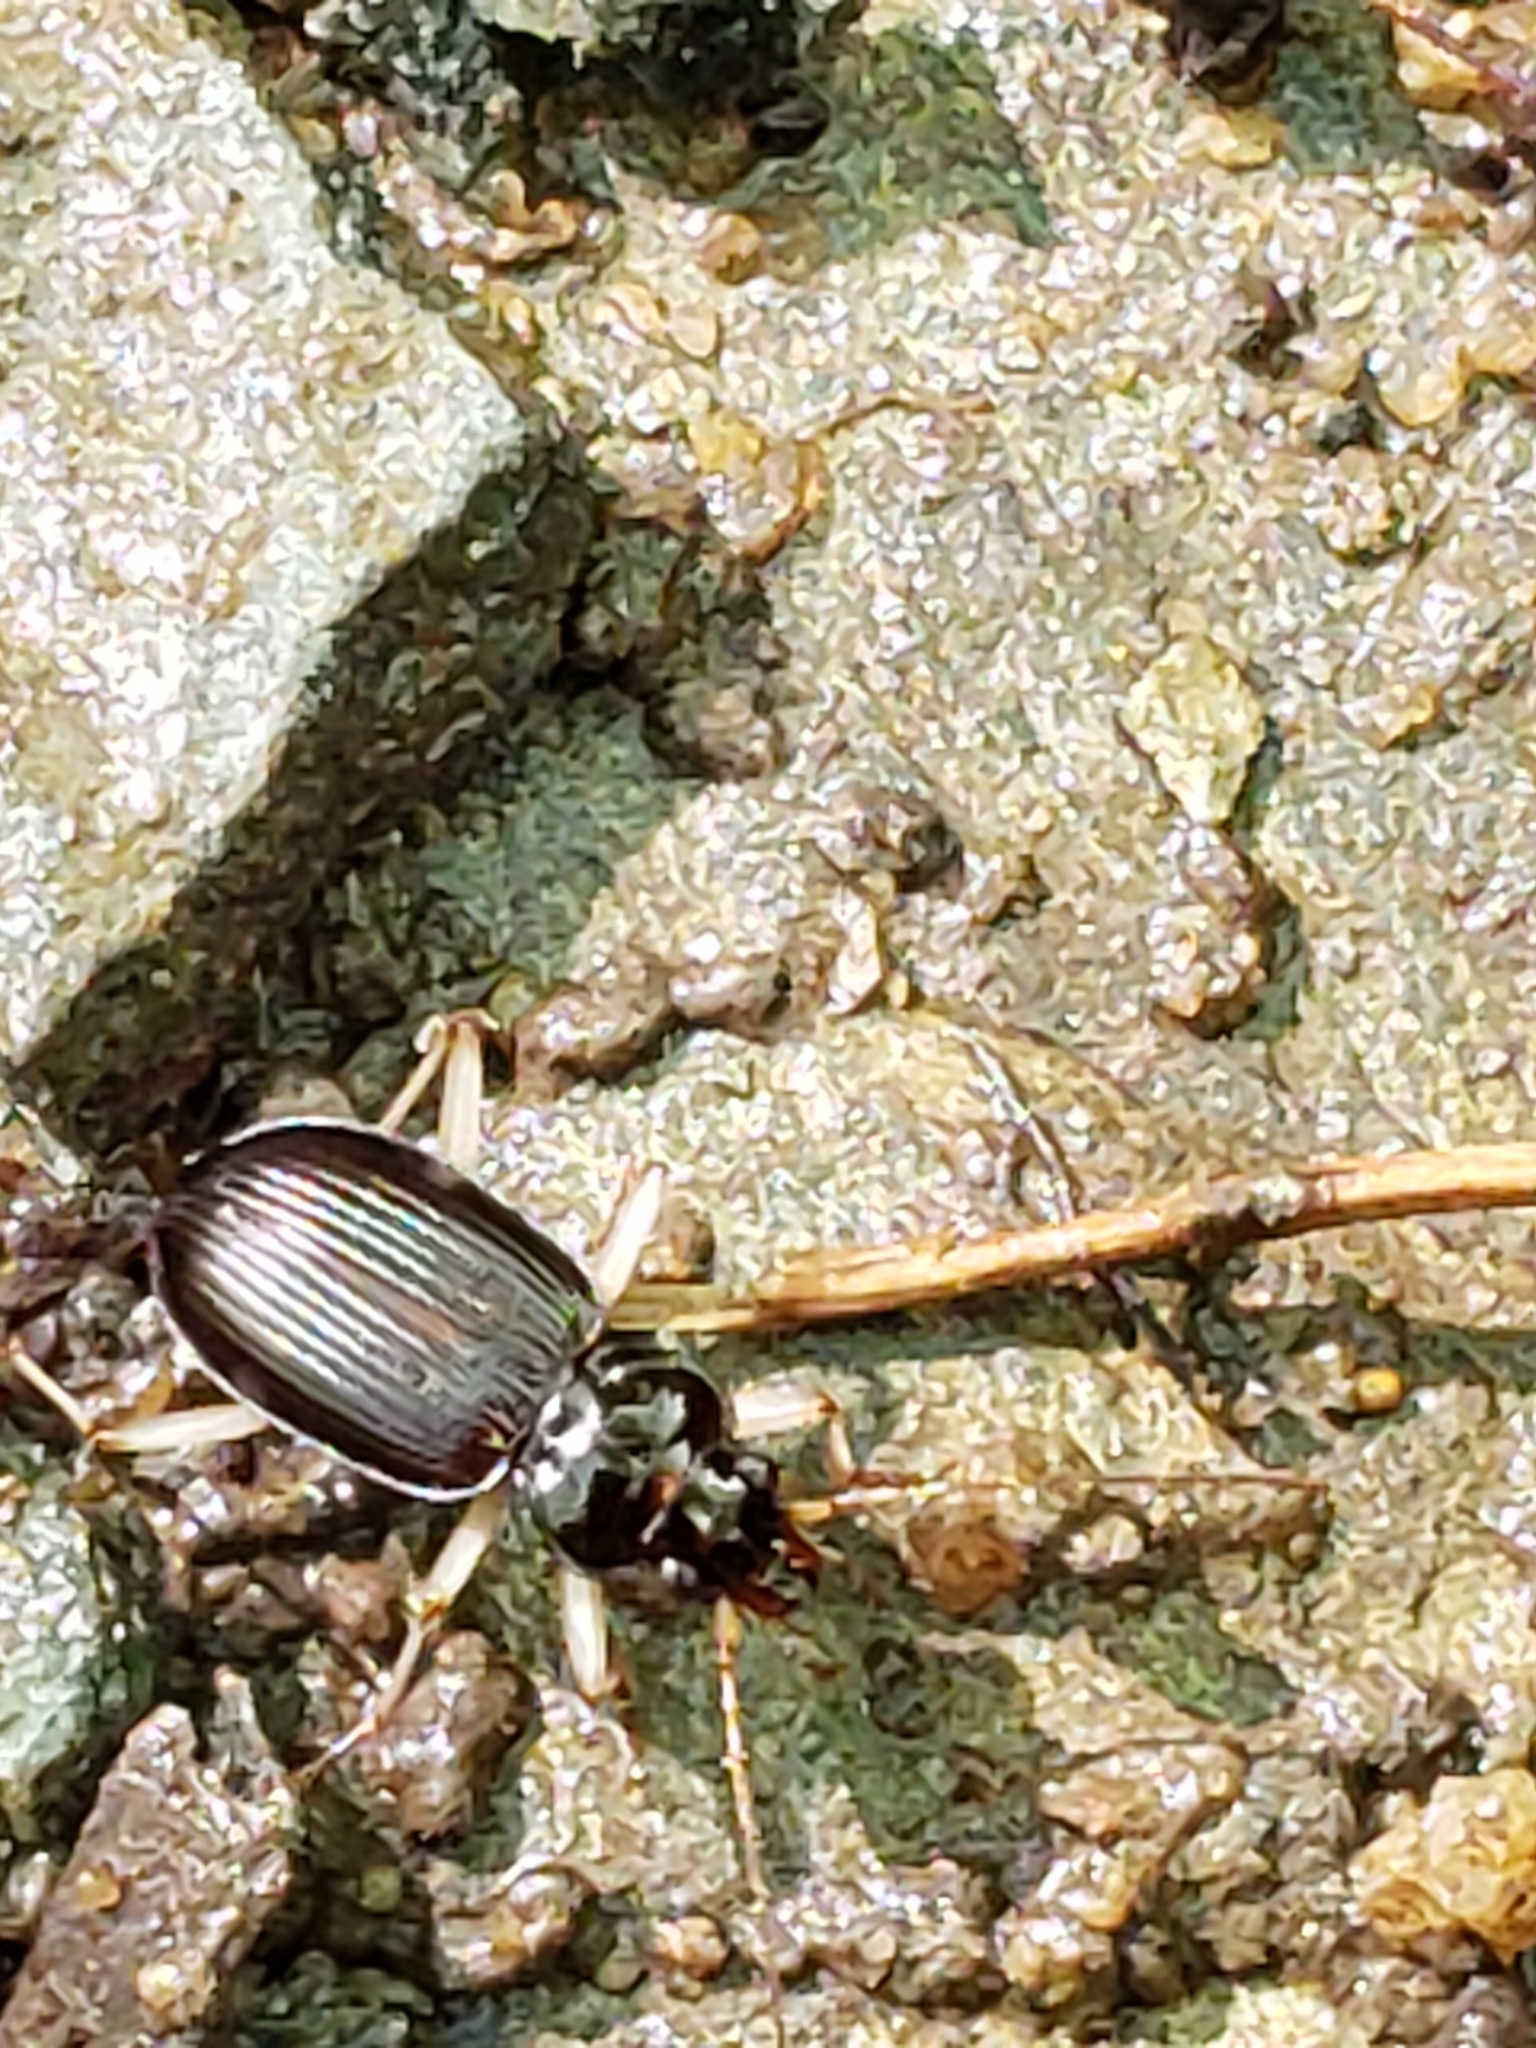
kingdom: Animalia
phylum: Arthropoda
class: Insecta
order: Coleoptera
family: Carabidae
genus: Nebria
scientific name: Nebria pallipes
